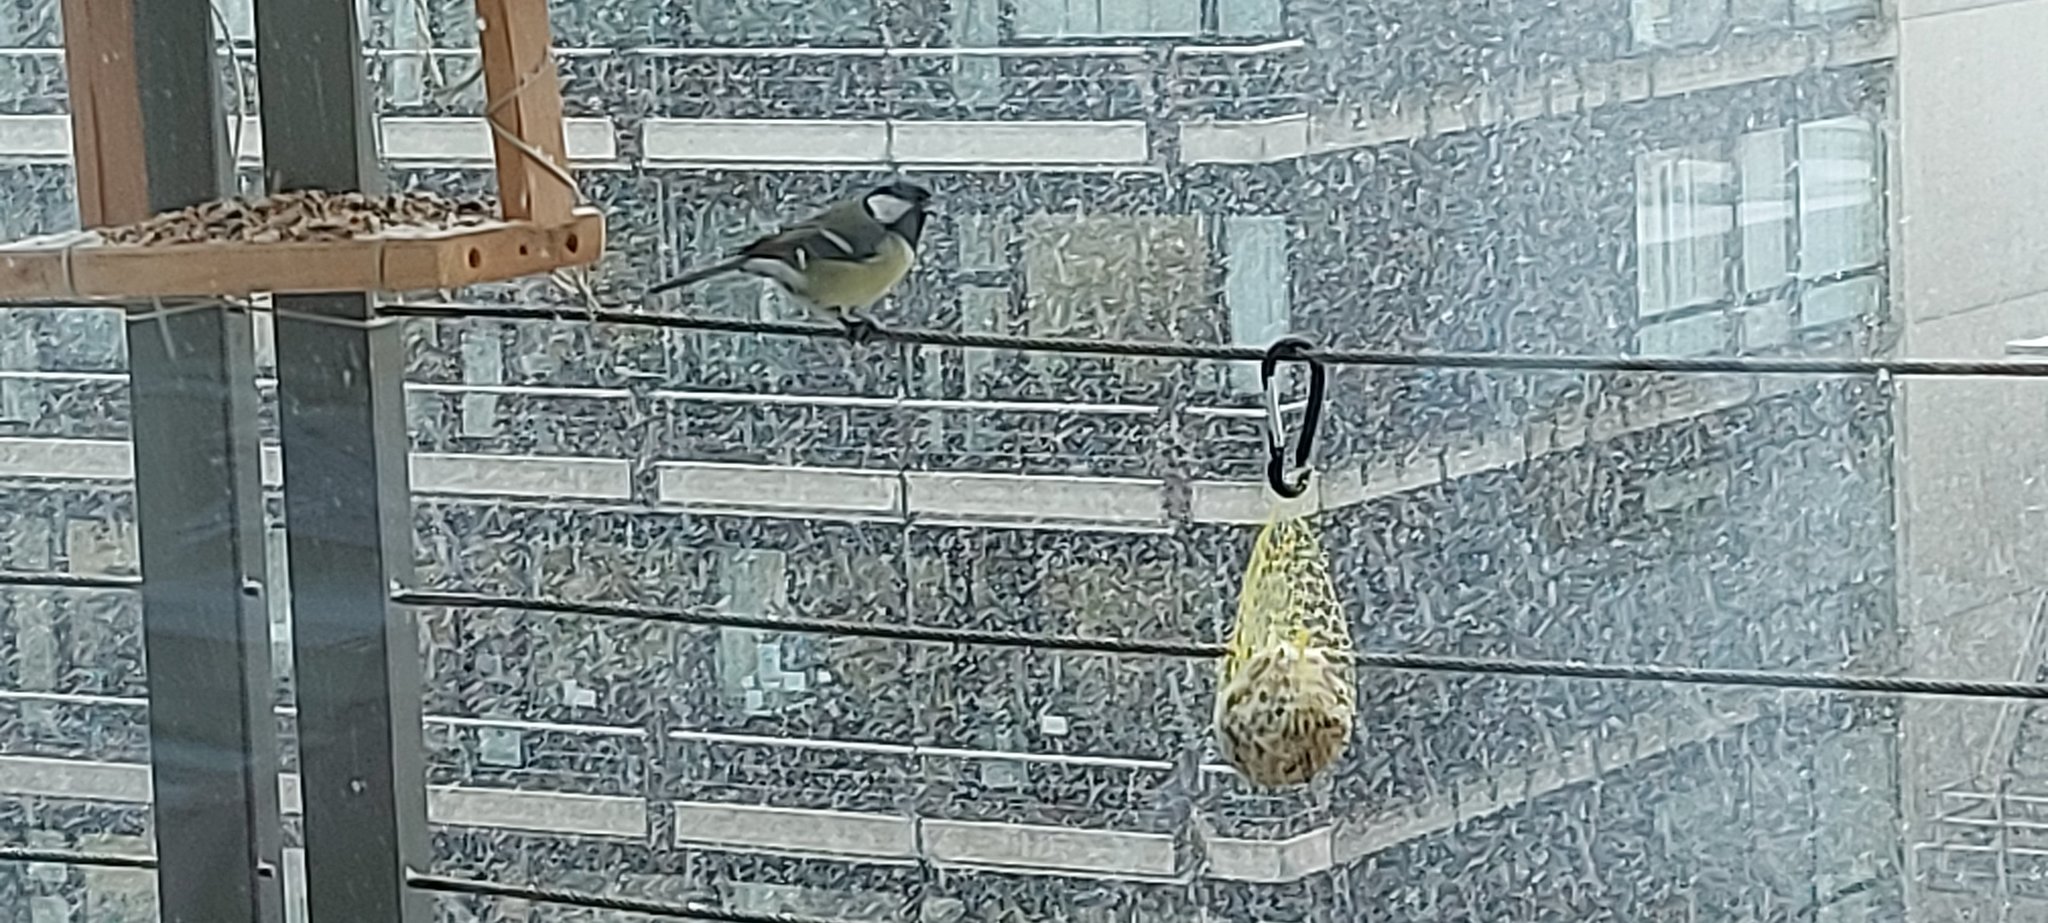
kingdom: Animalia
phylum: Chordata
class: Aves
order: Passeriformes
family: Paridae
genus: Parus
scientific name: Parus major
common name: Great tit
